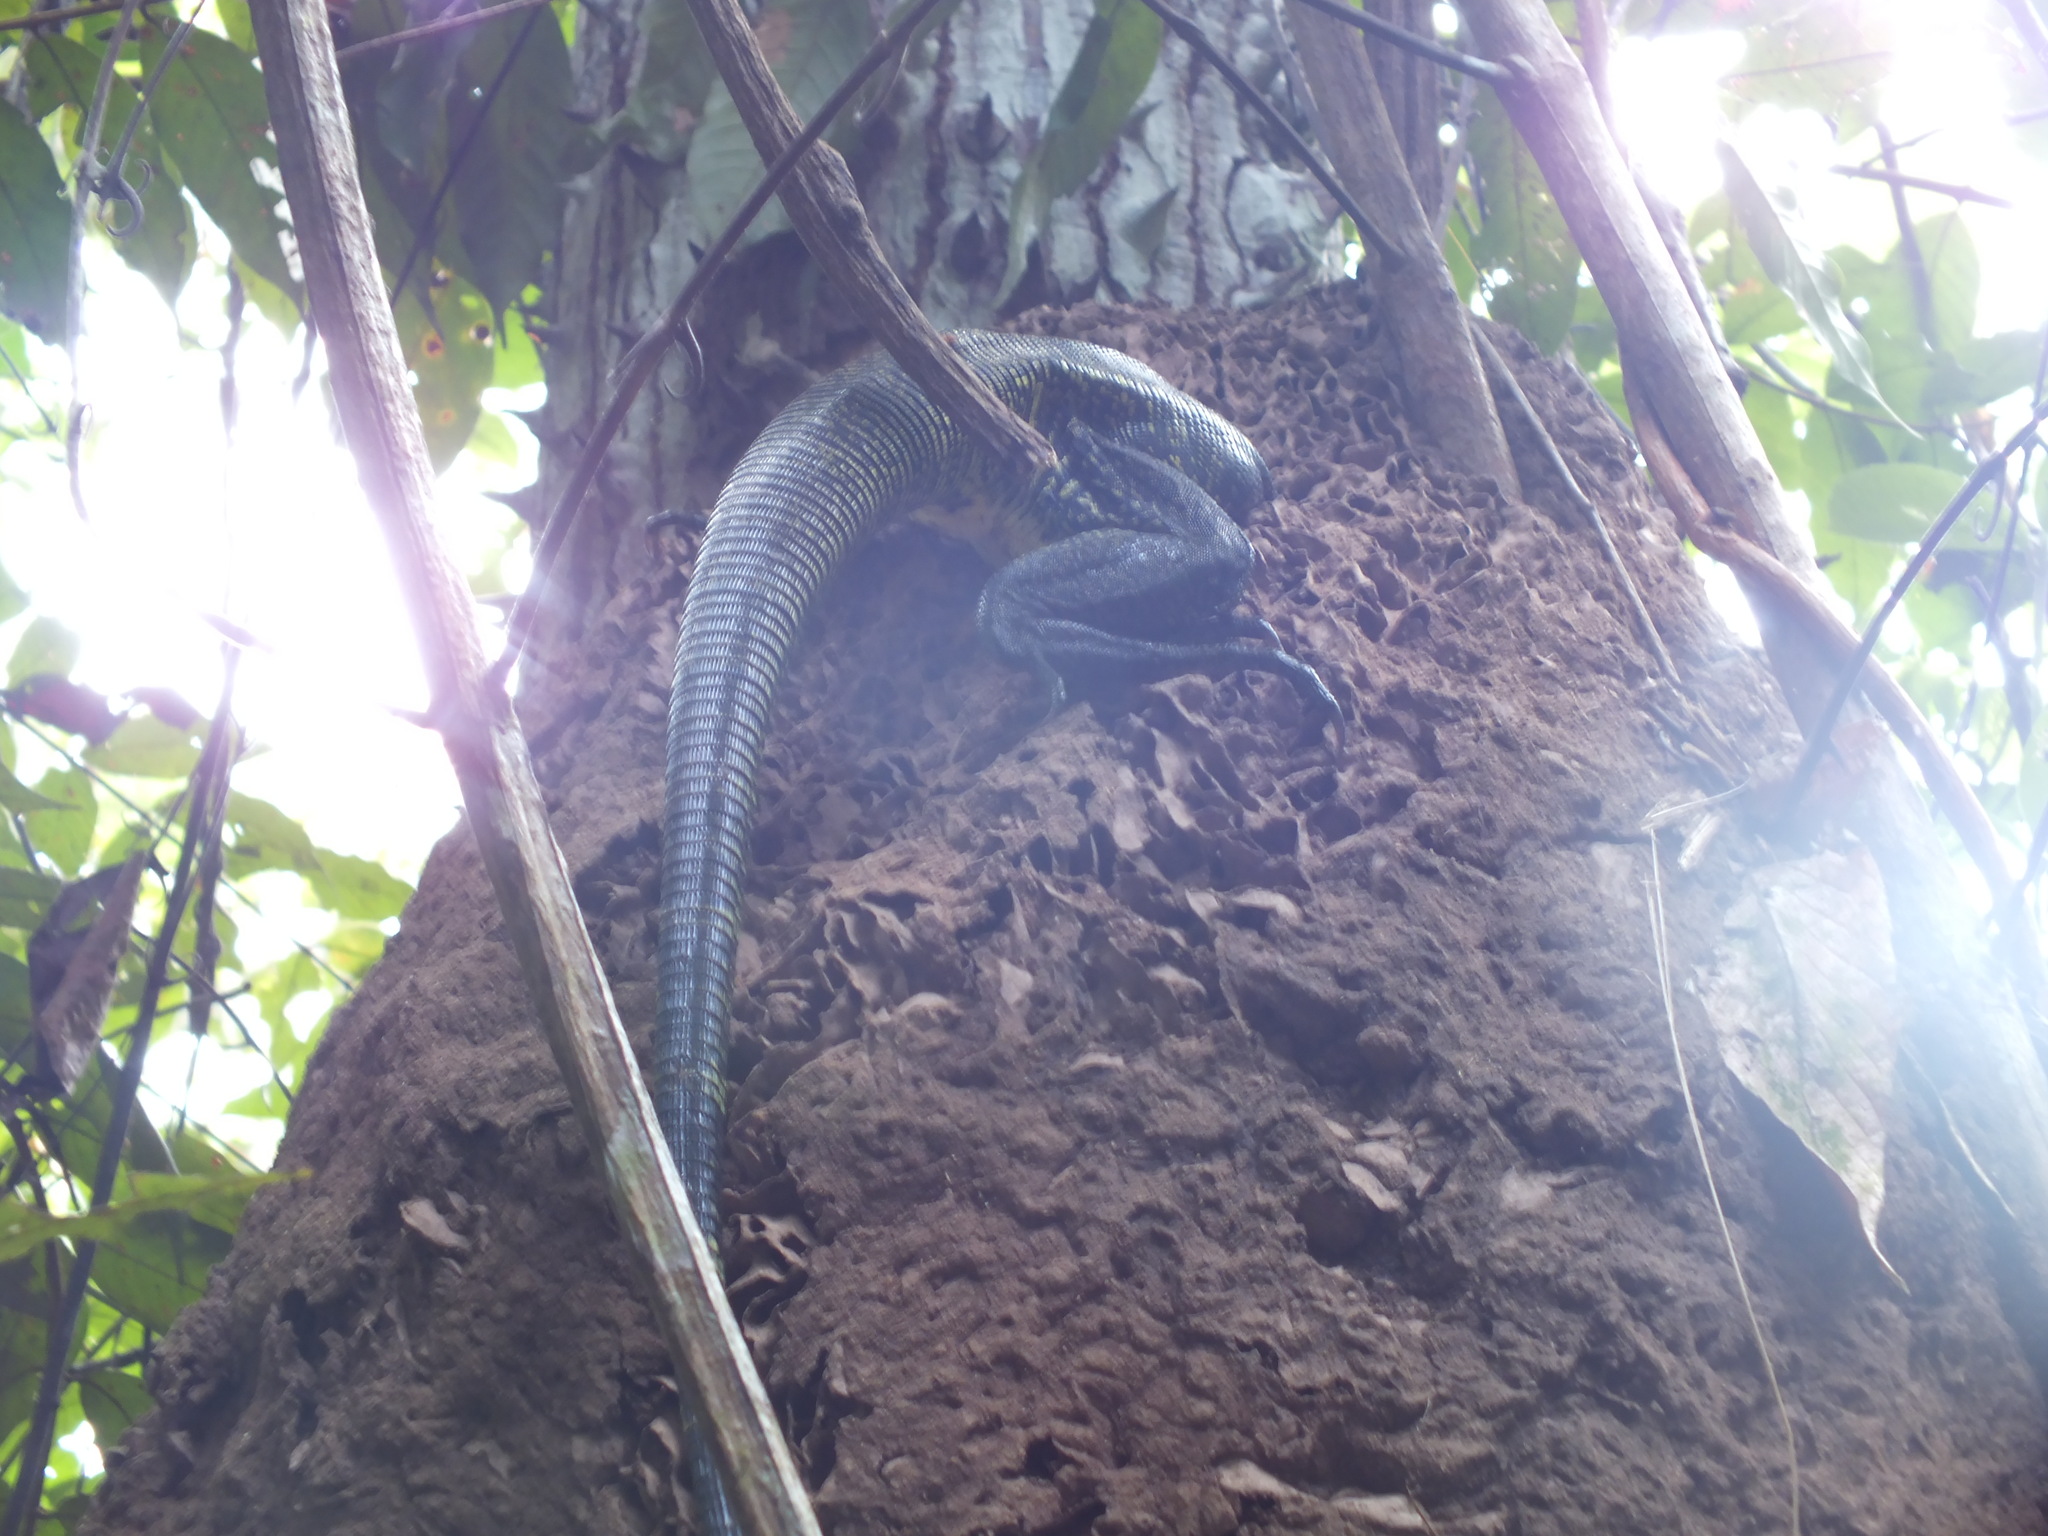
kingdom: Animalia
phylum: Chordata
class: Squamata
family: Teiidae
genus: Tupinambis
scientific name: Tupinambis teguixin
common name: Black tegu
